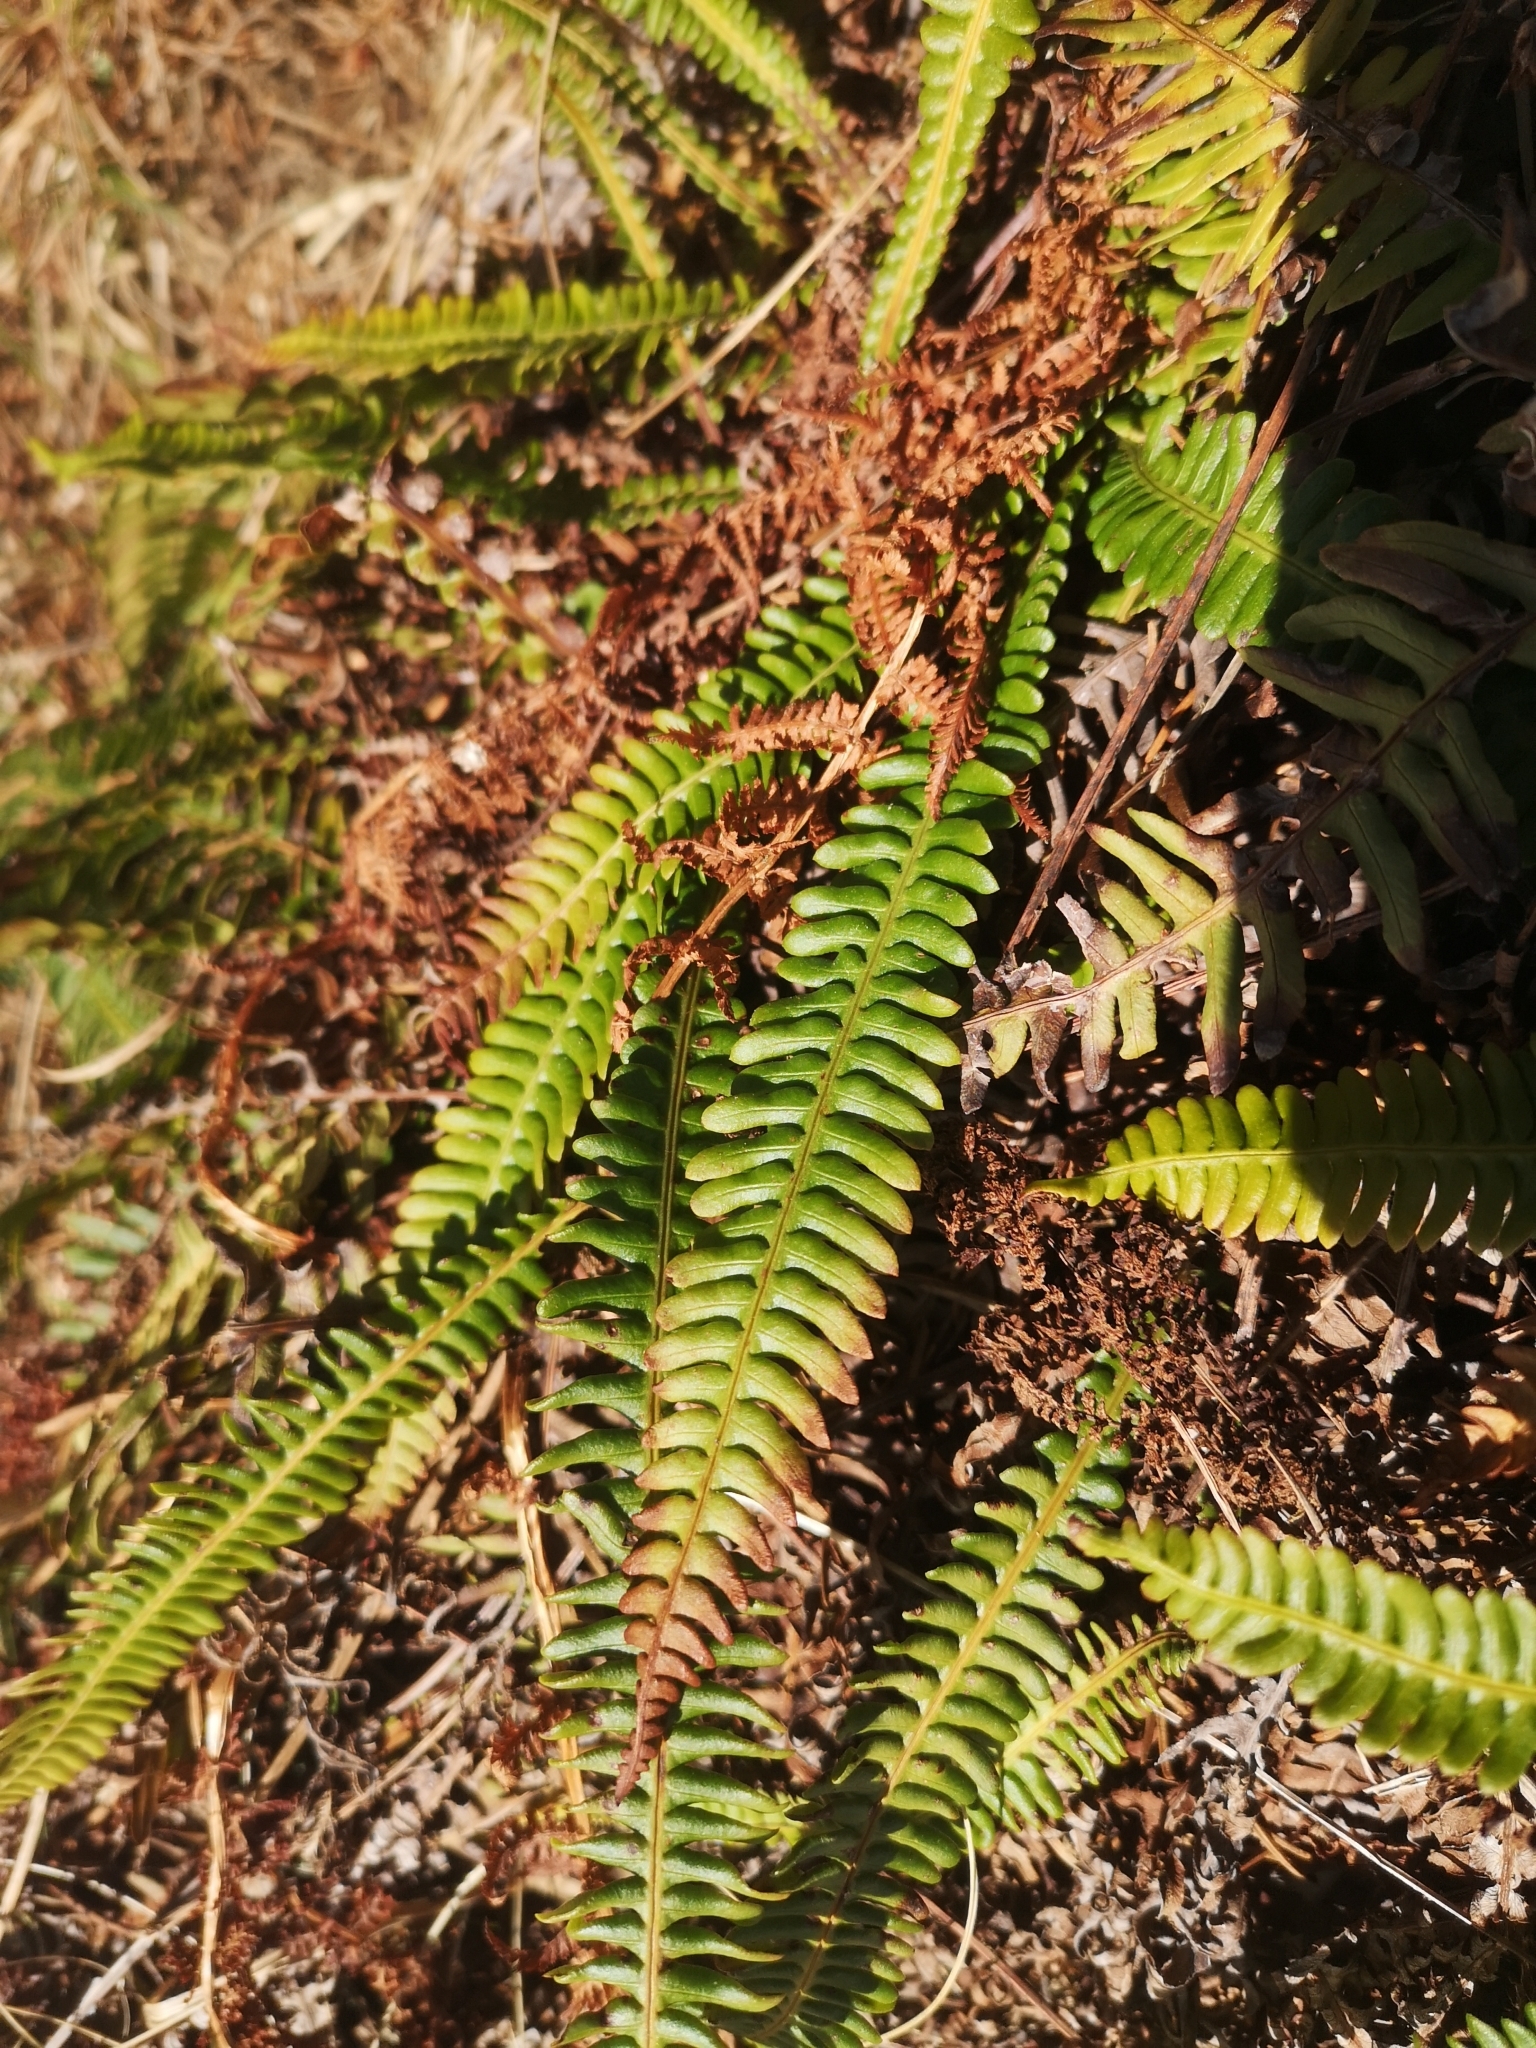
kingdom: Plantae
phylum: Tracheophyta
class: Polypodiopsida
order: Polypodiales
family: Blechnaceae
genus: Struthiopteris
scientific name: Struthiopteris spicant
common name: Deer fern
